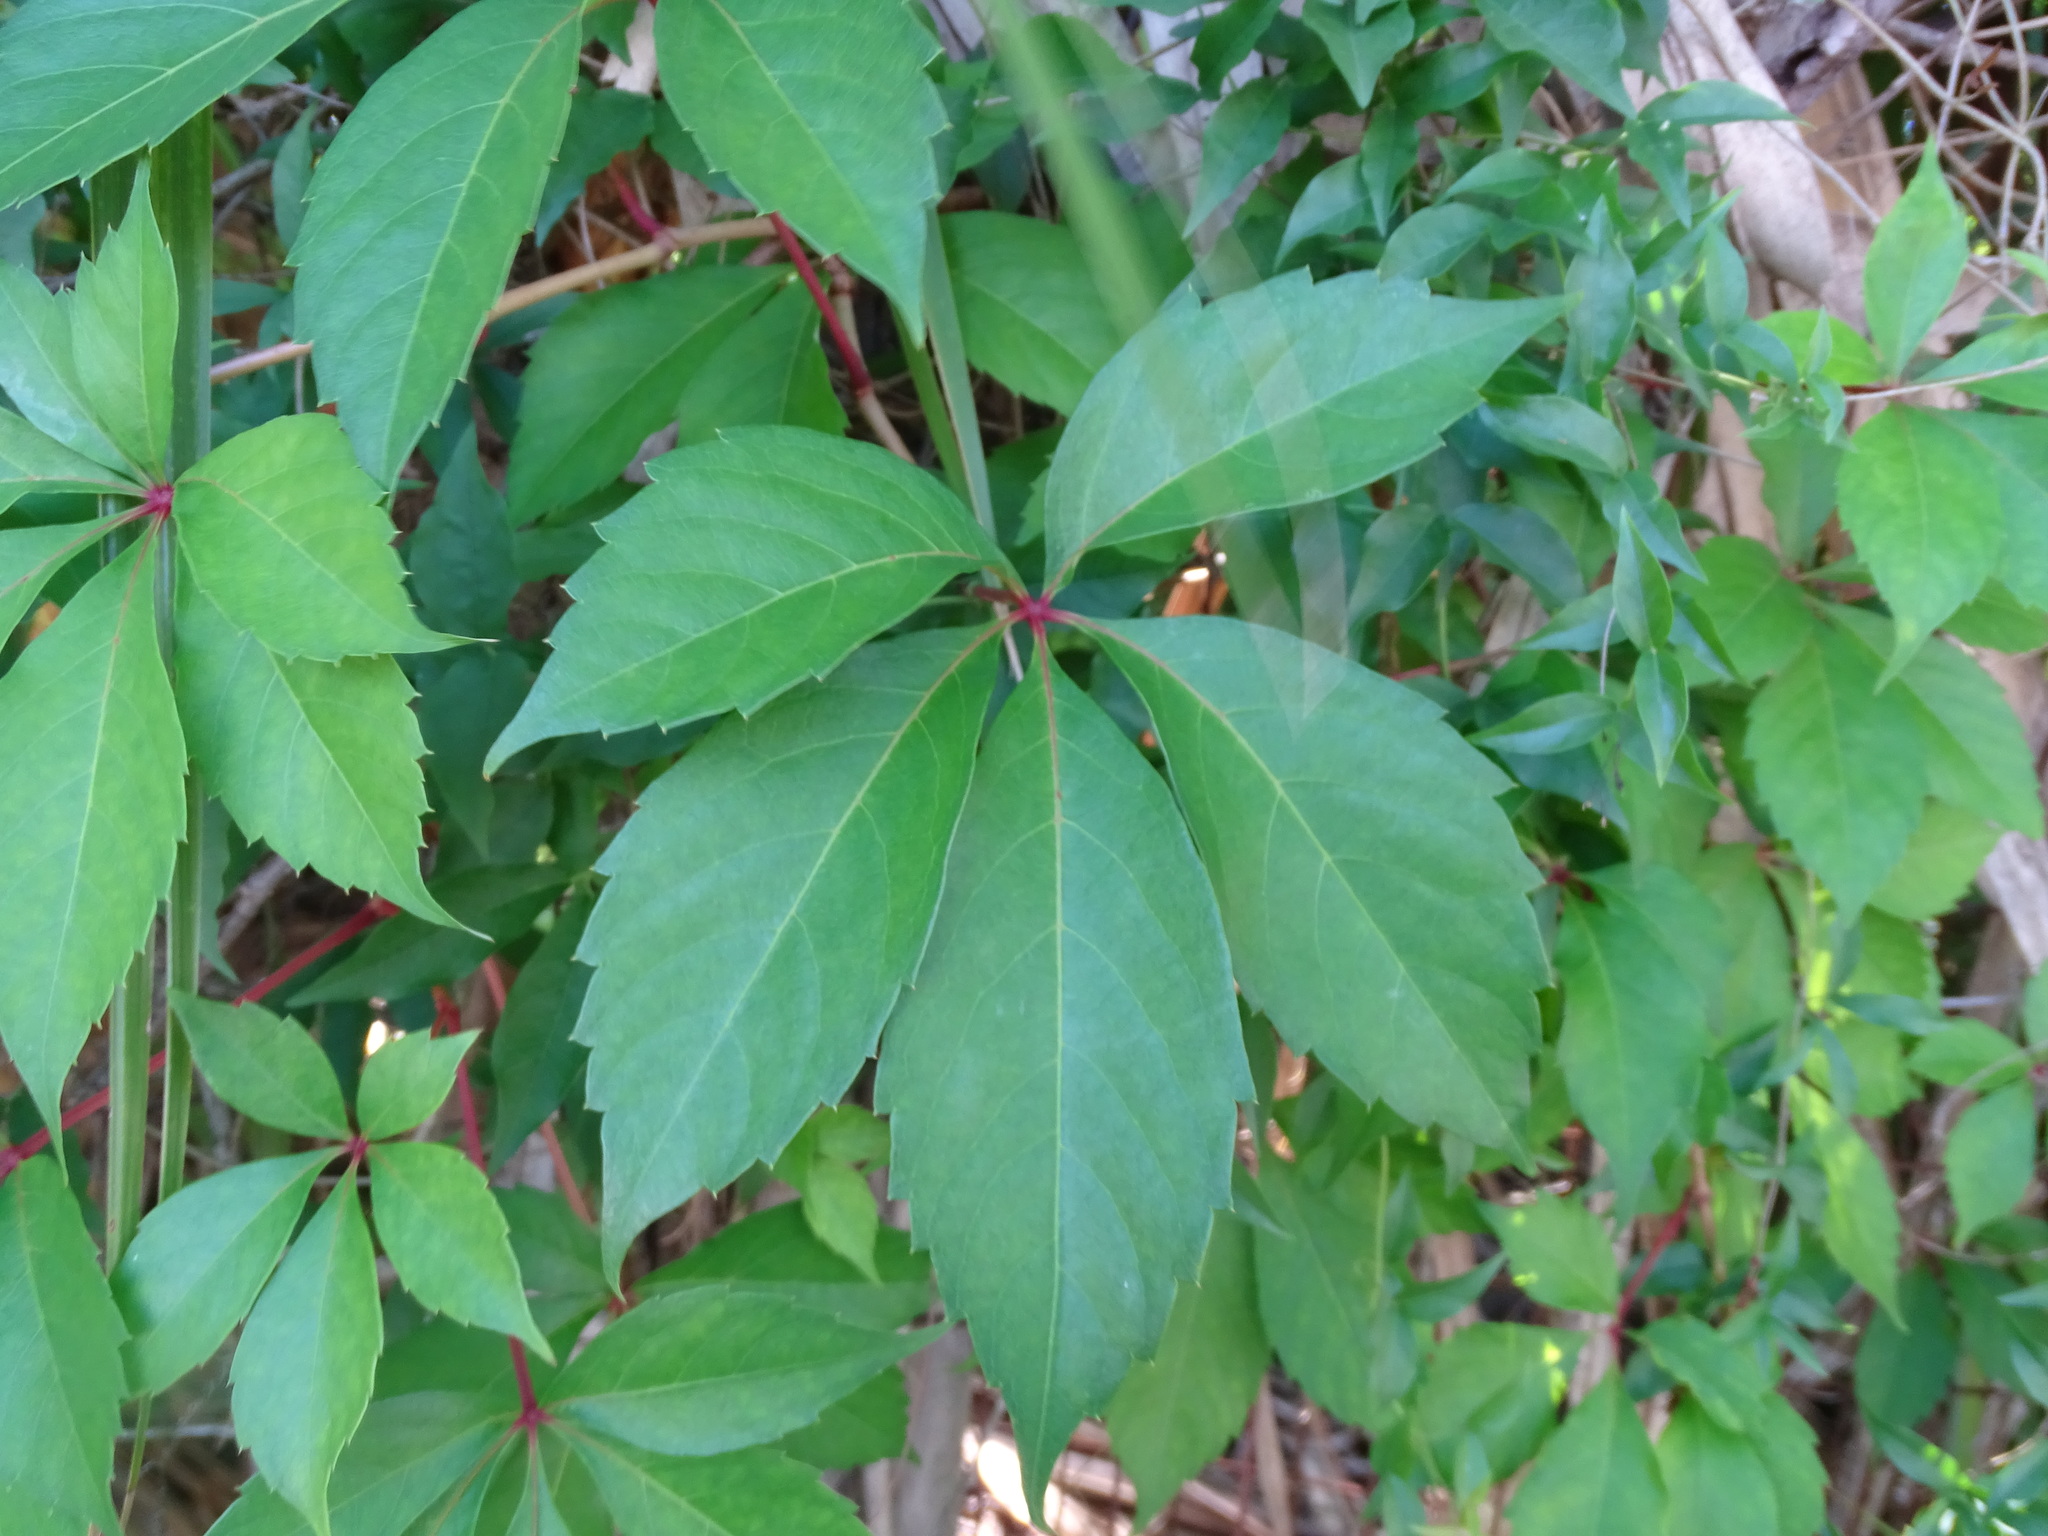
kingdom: Plantae
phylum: Tracheophyta
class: Magnoliopsida
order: Vitales
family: Vitaceae
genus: Parthenocissus
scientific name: Parthenocissus quinquefolia
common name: Virginia-creeper
